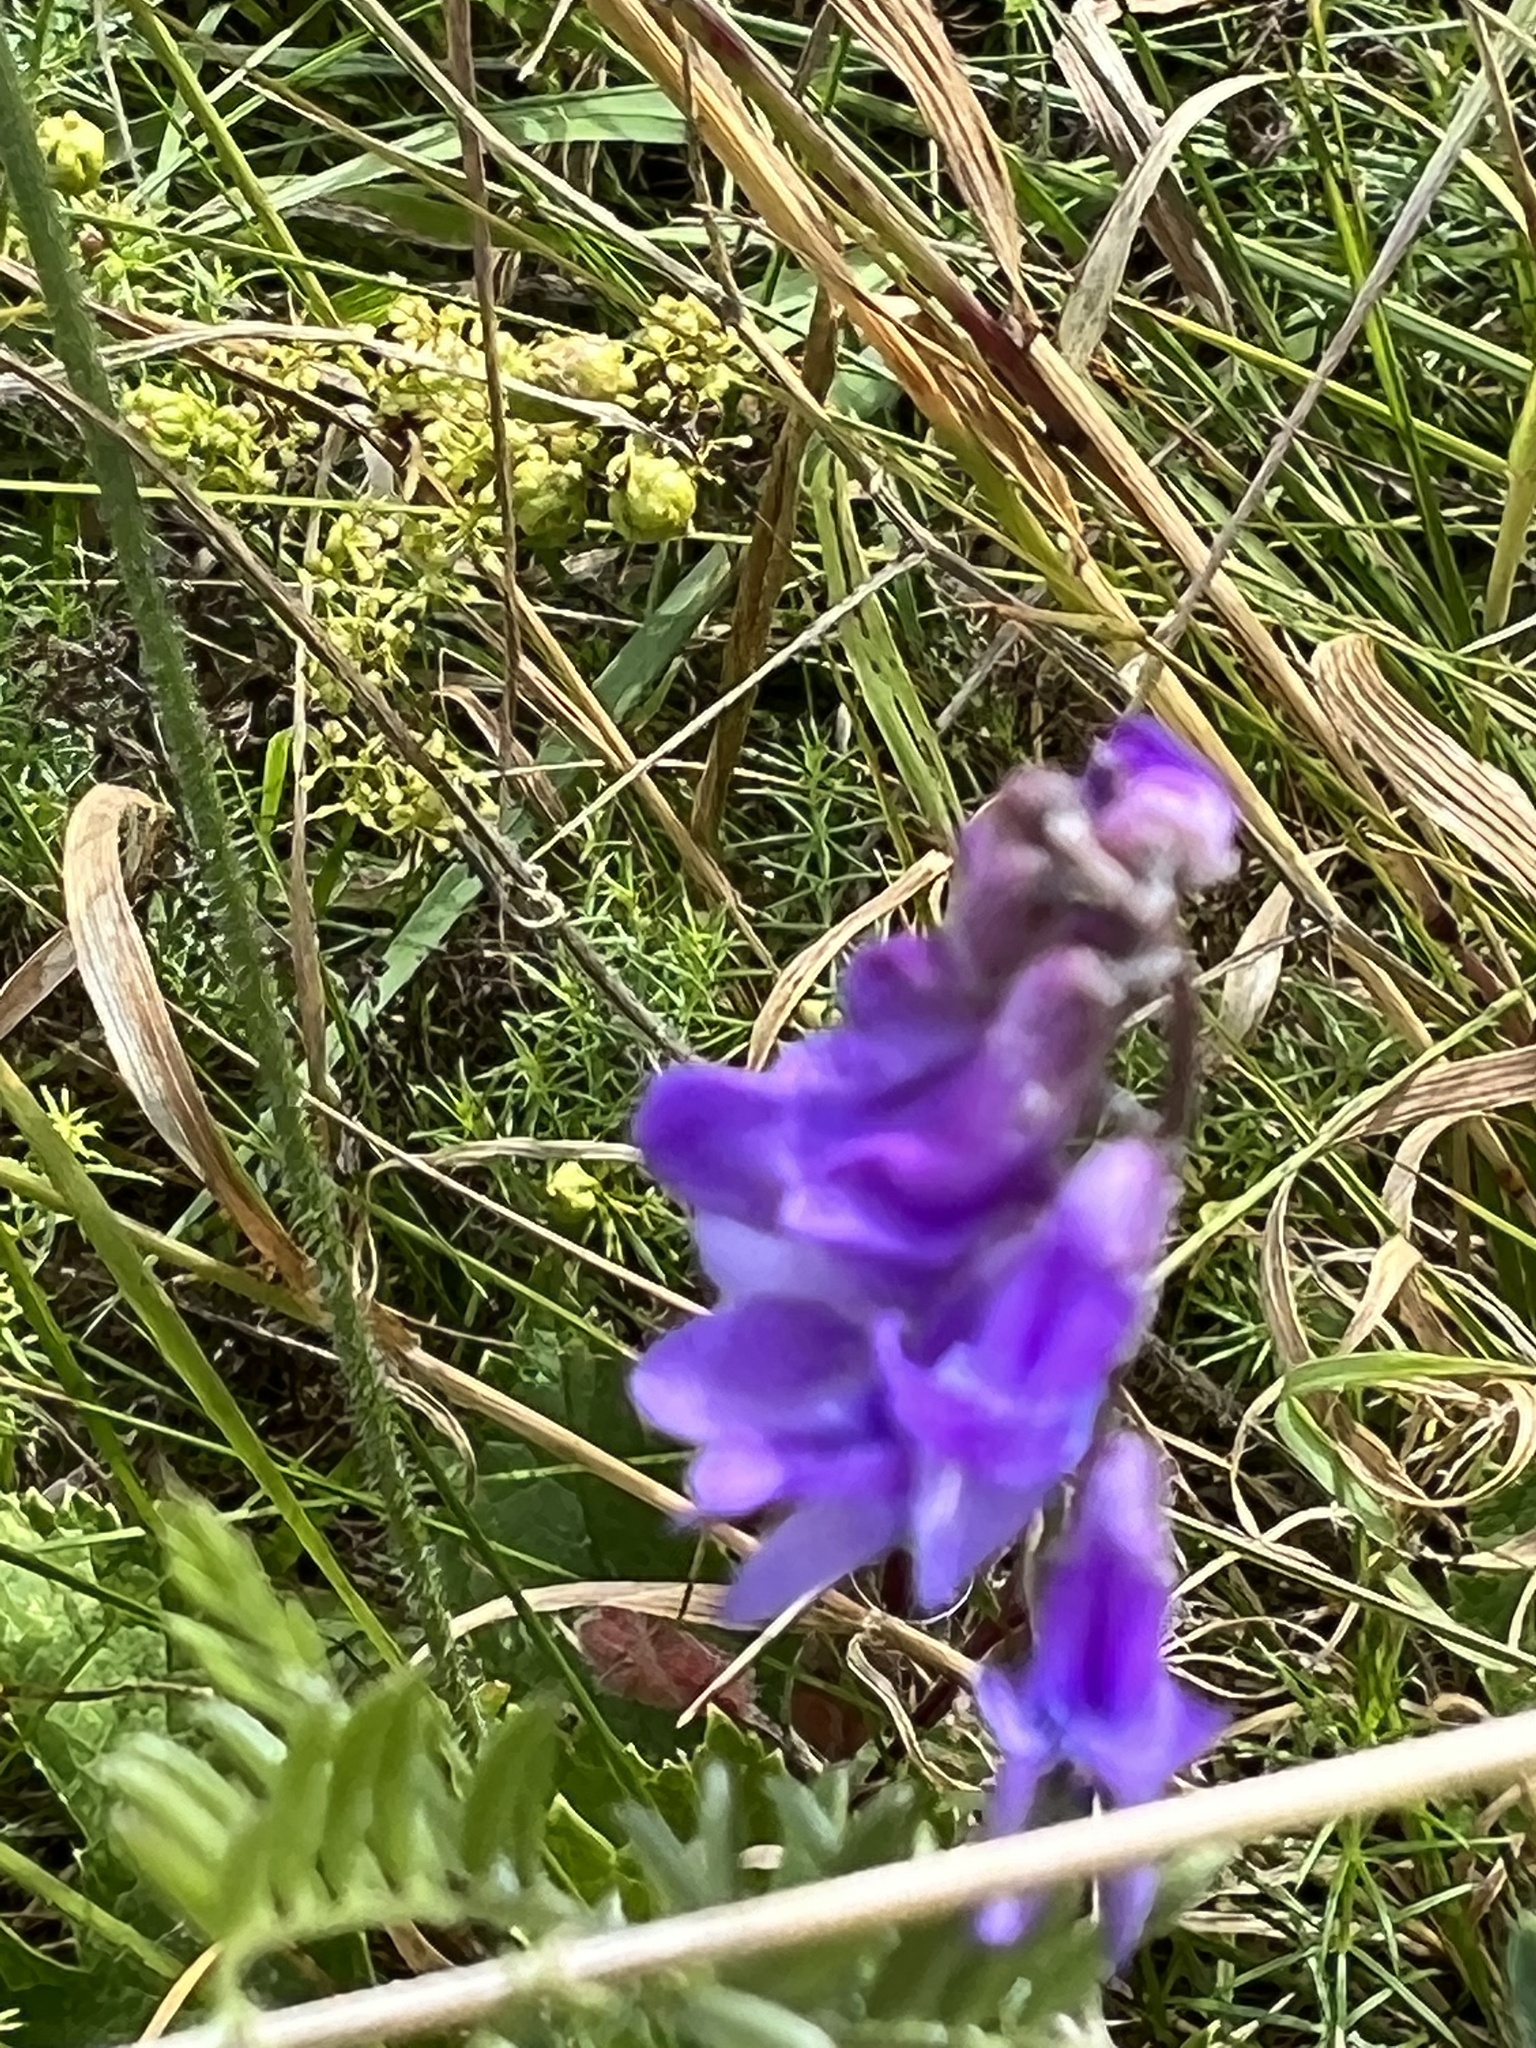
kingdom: Plantae
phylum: Tracheophyta
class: Magnoliopsida
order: Fabales
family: Fabaceae
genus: Vicia
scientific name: Vicia cracca
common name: Bird vetch
